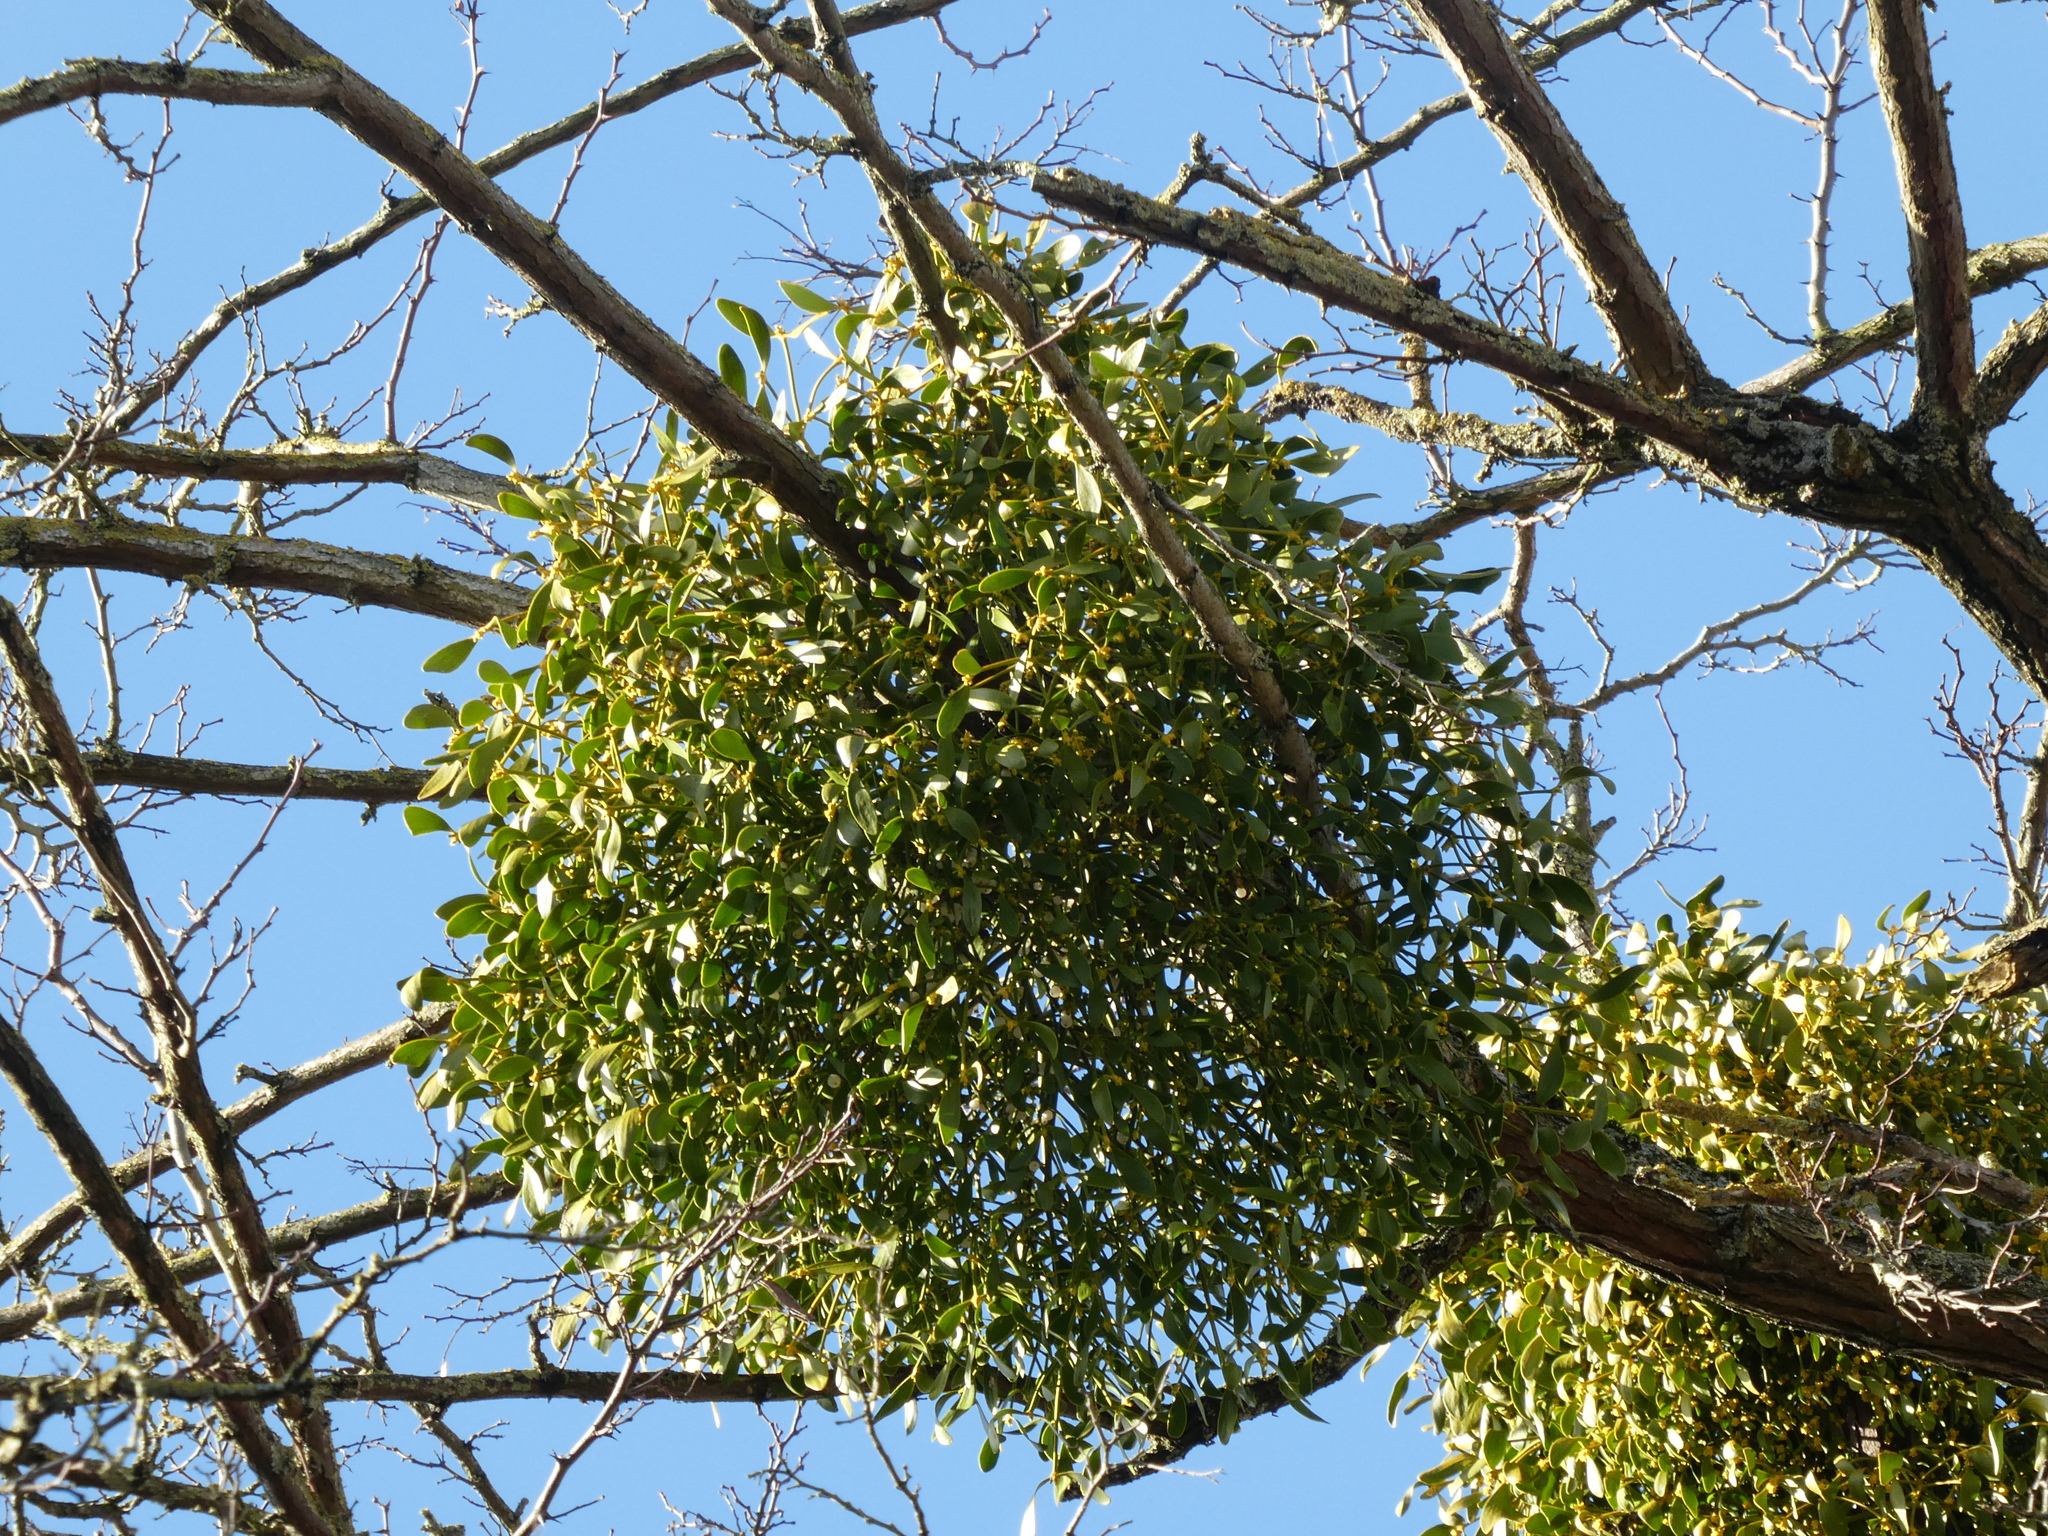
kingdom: Plantae
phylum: Tracheophyta
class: Magnoliopsida
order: Santalales
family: Viscaceae
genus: Viscum
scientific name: Viscum album
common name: Mistletoe
